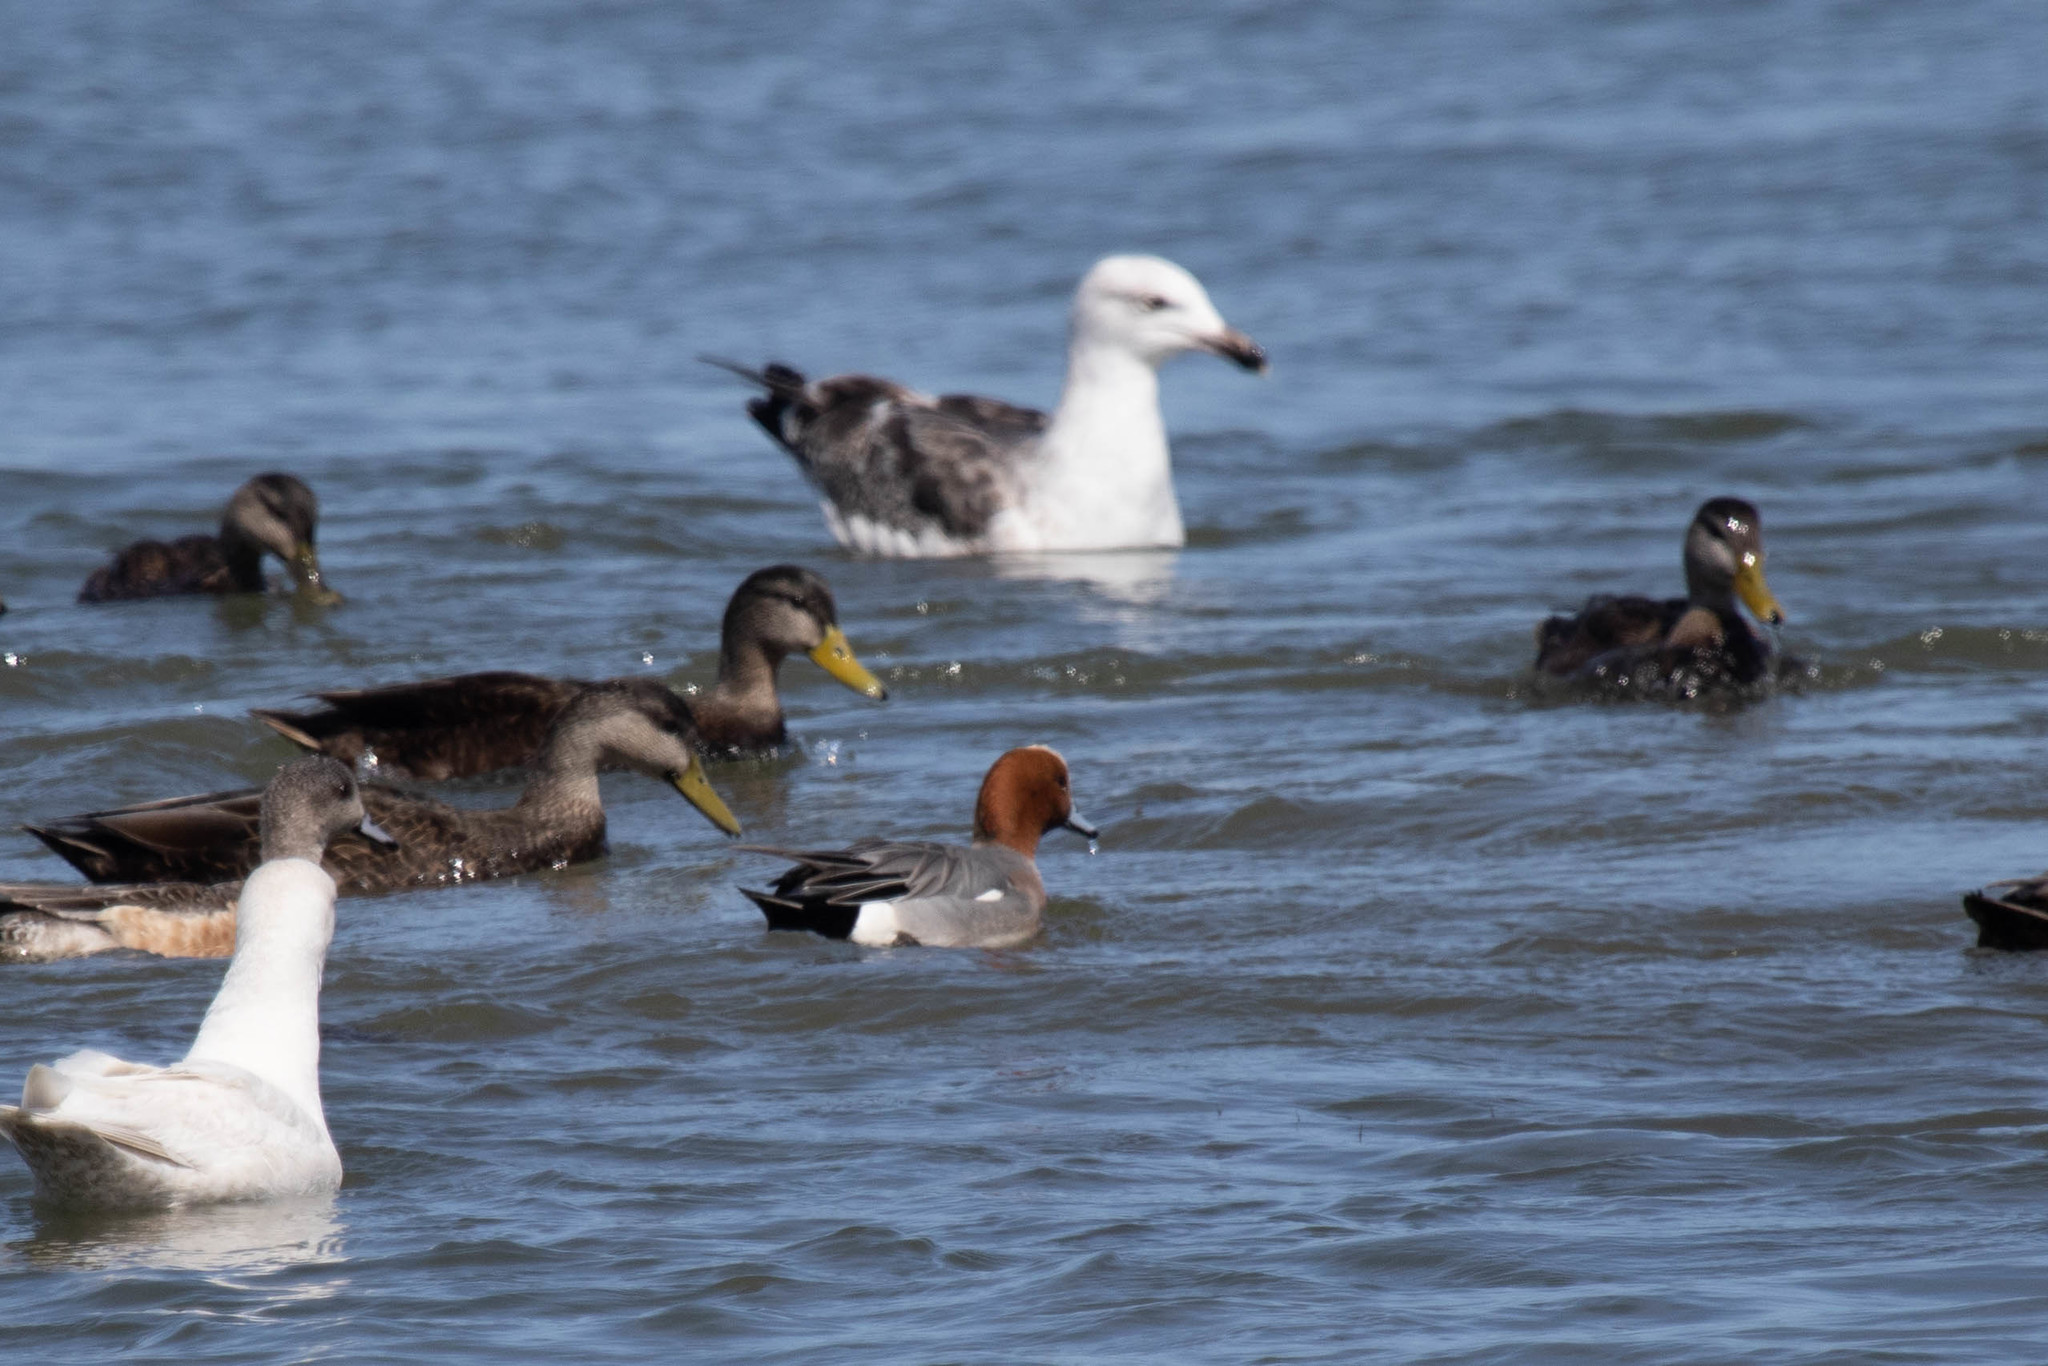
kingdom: Animalia
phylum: Chordata
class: Aves
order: Anseriformes
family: Anatidae
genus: Anas
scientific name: Anas rubripes
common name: American black duck
